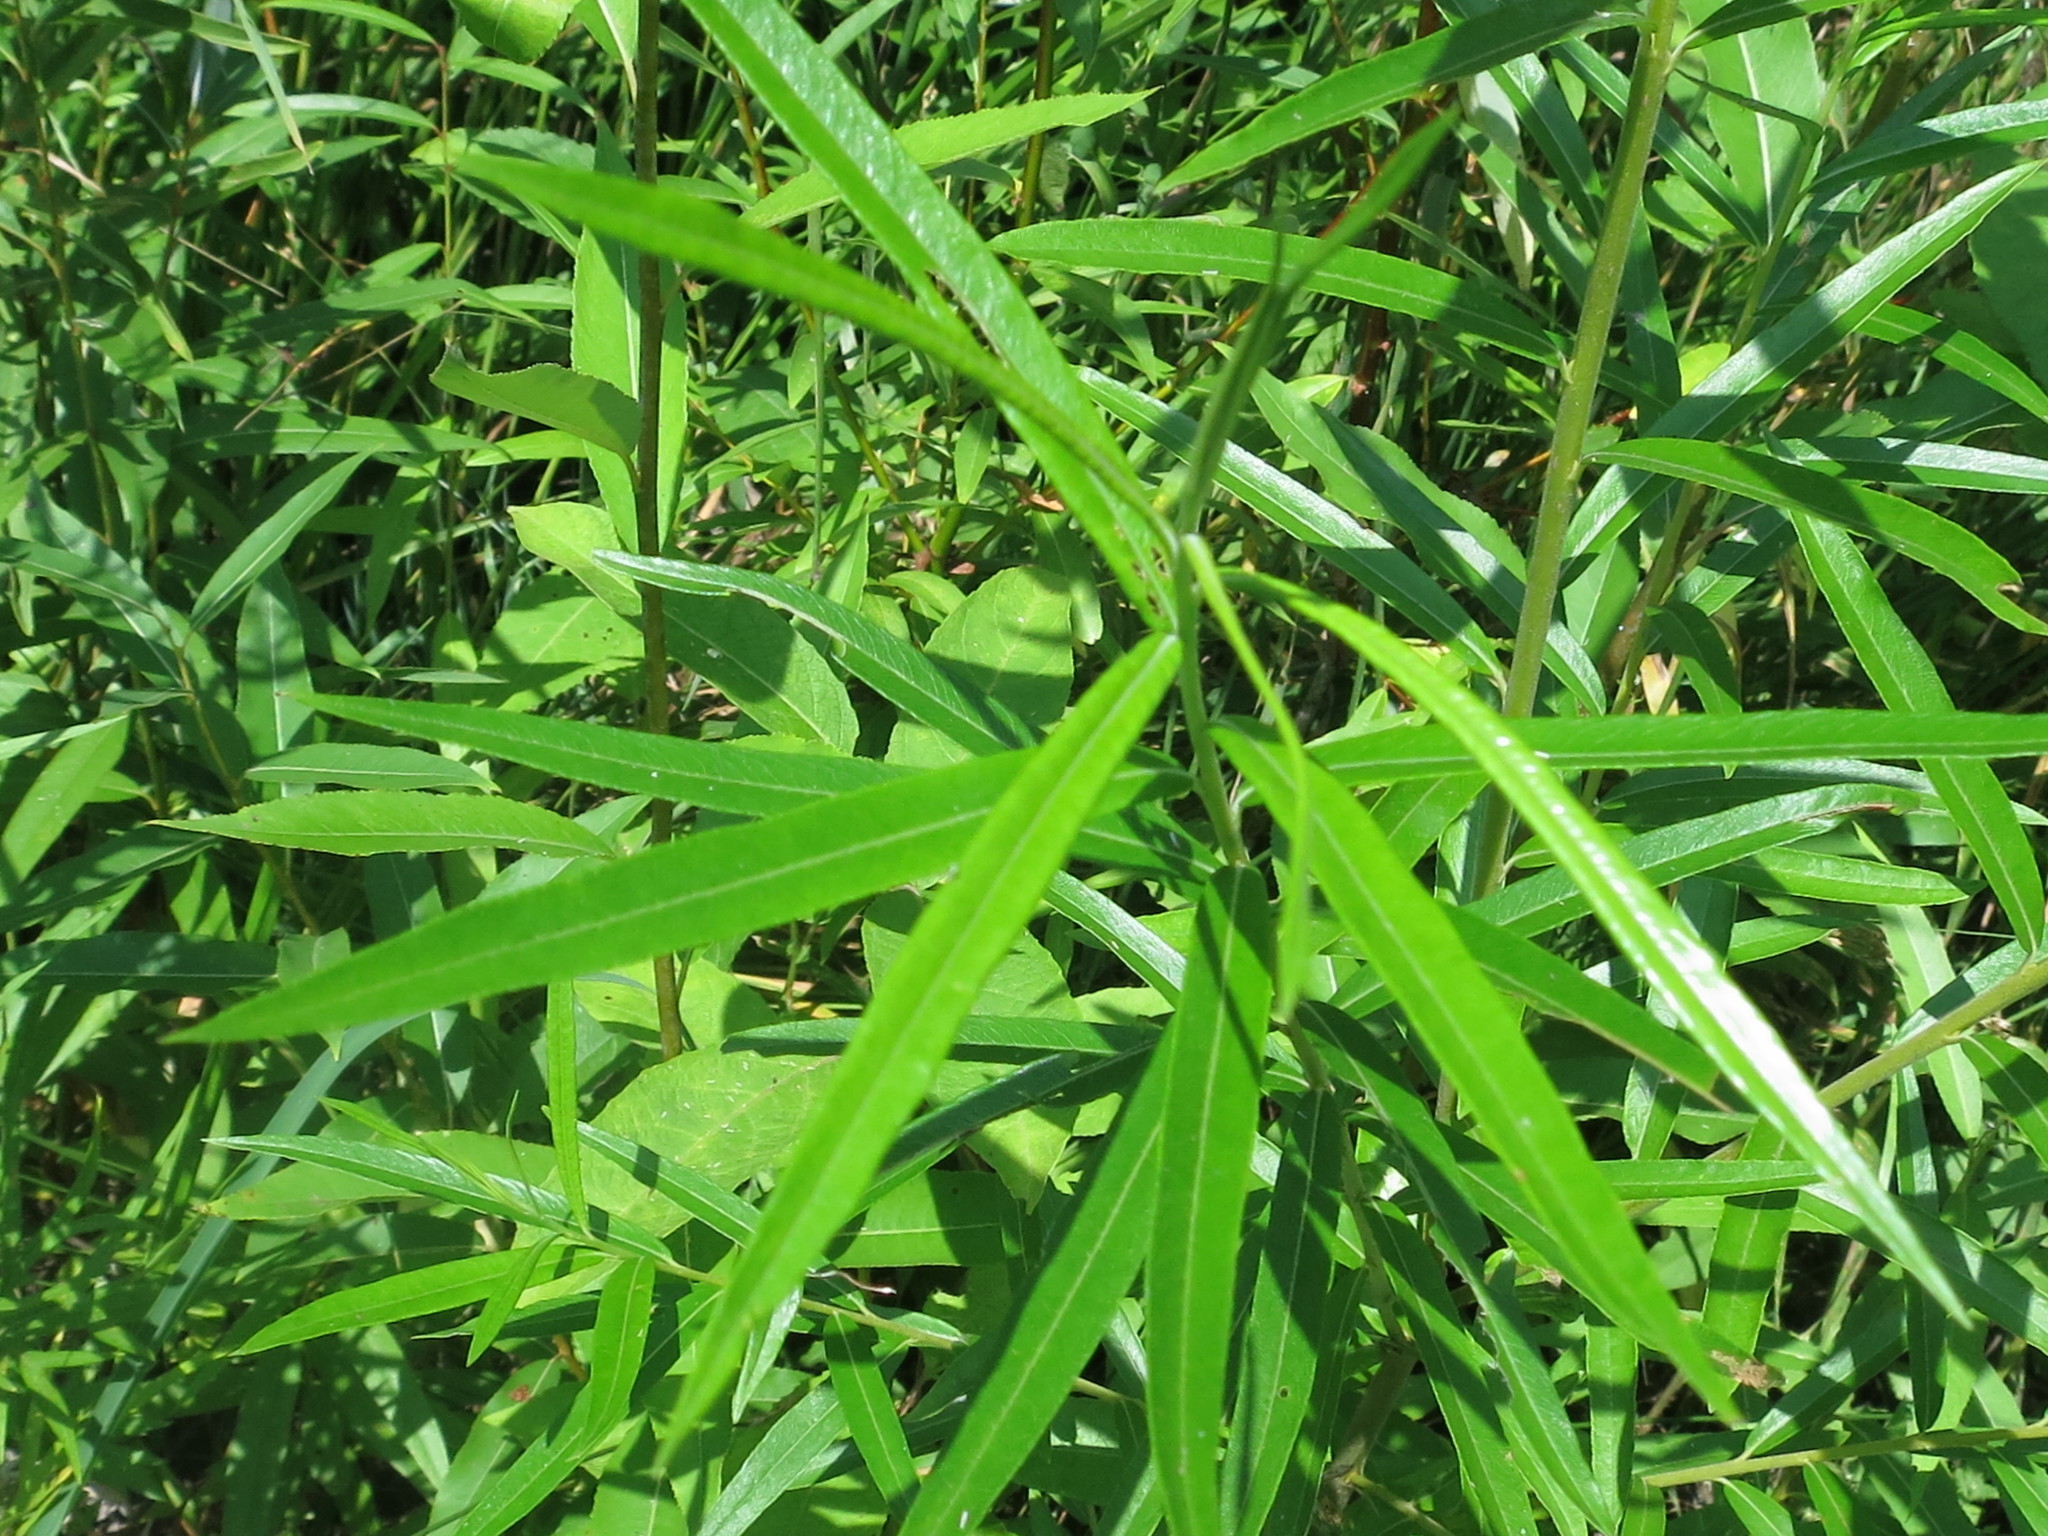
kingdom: Plantae
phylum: Tracheophyta
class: Magnoliopsida
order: Malpighiales
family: Salicaceae
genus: Salix
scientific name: Salix schwerinii
